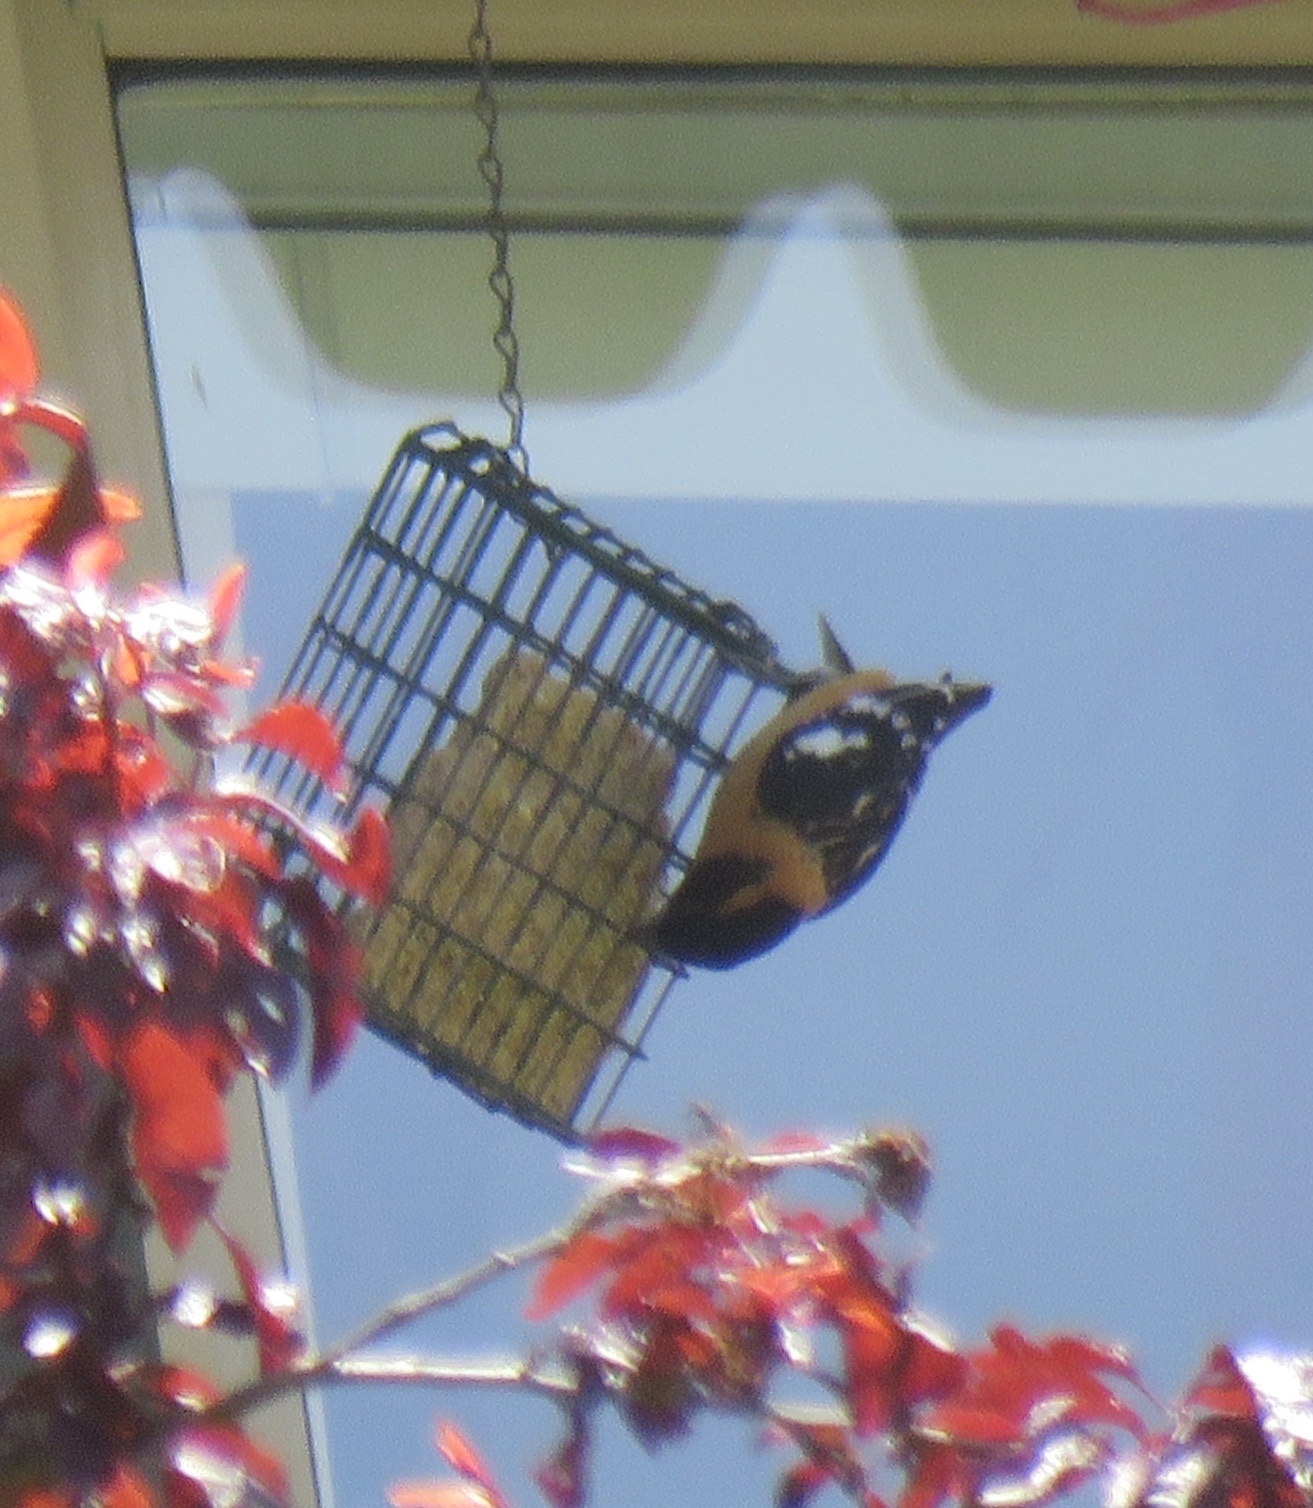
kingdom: Animalia
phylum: Chordata
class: Aves
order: Passeriformes
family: Cardinalidae
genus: Pheucticus
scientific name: Pheucticus melanocephalus
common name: Black-headed grosbeak
